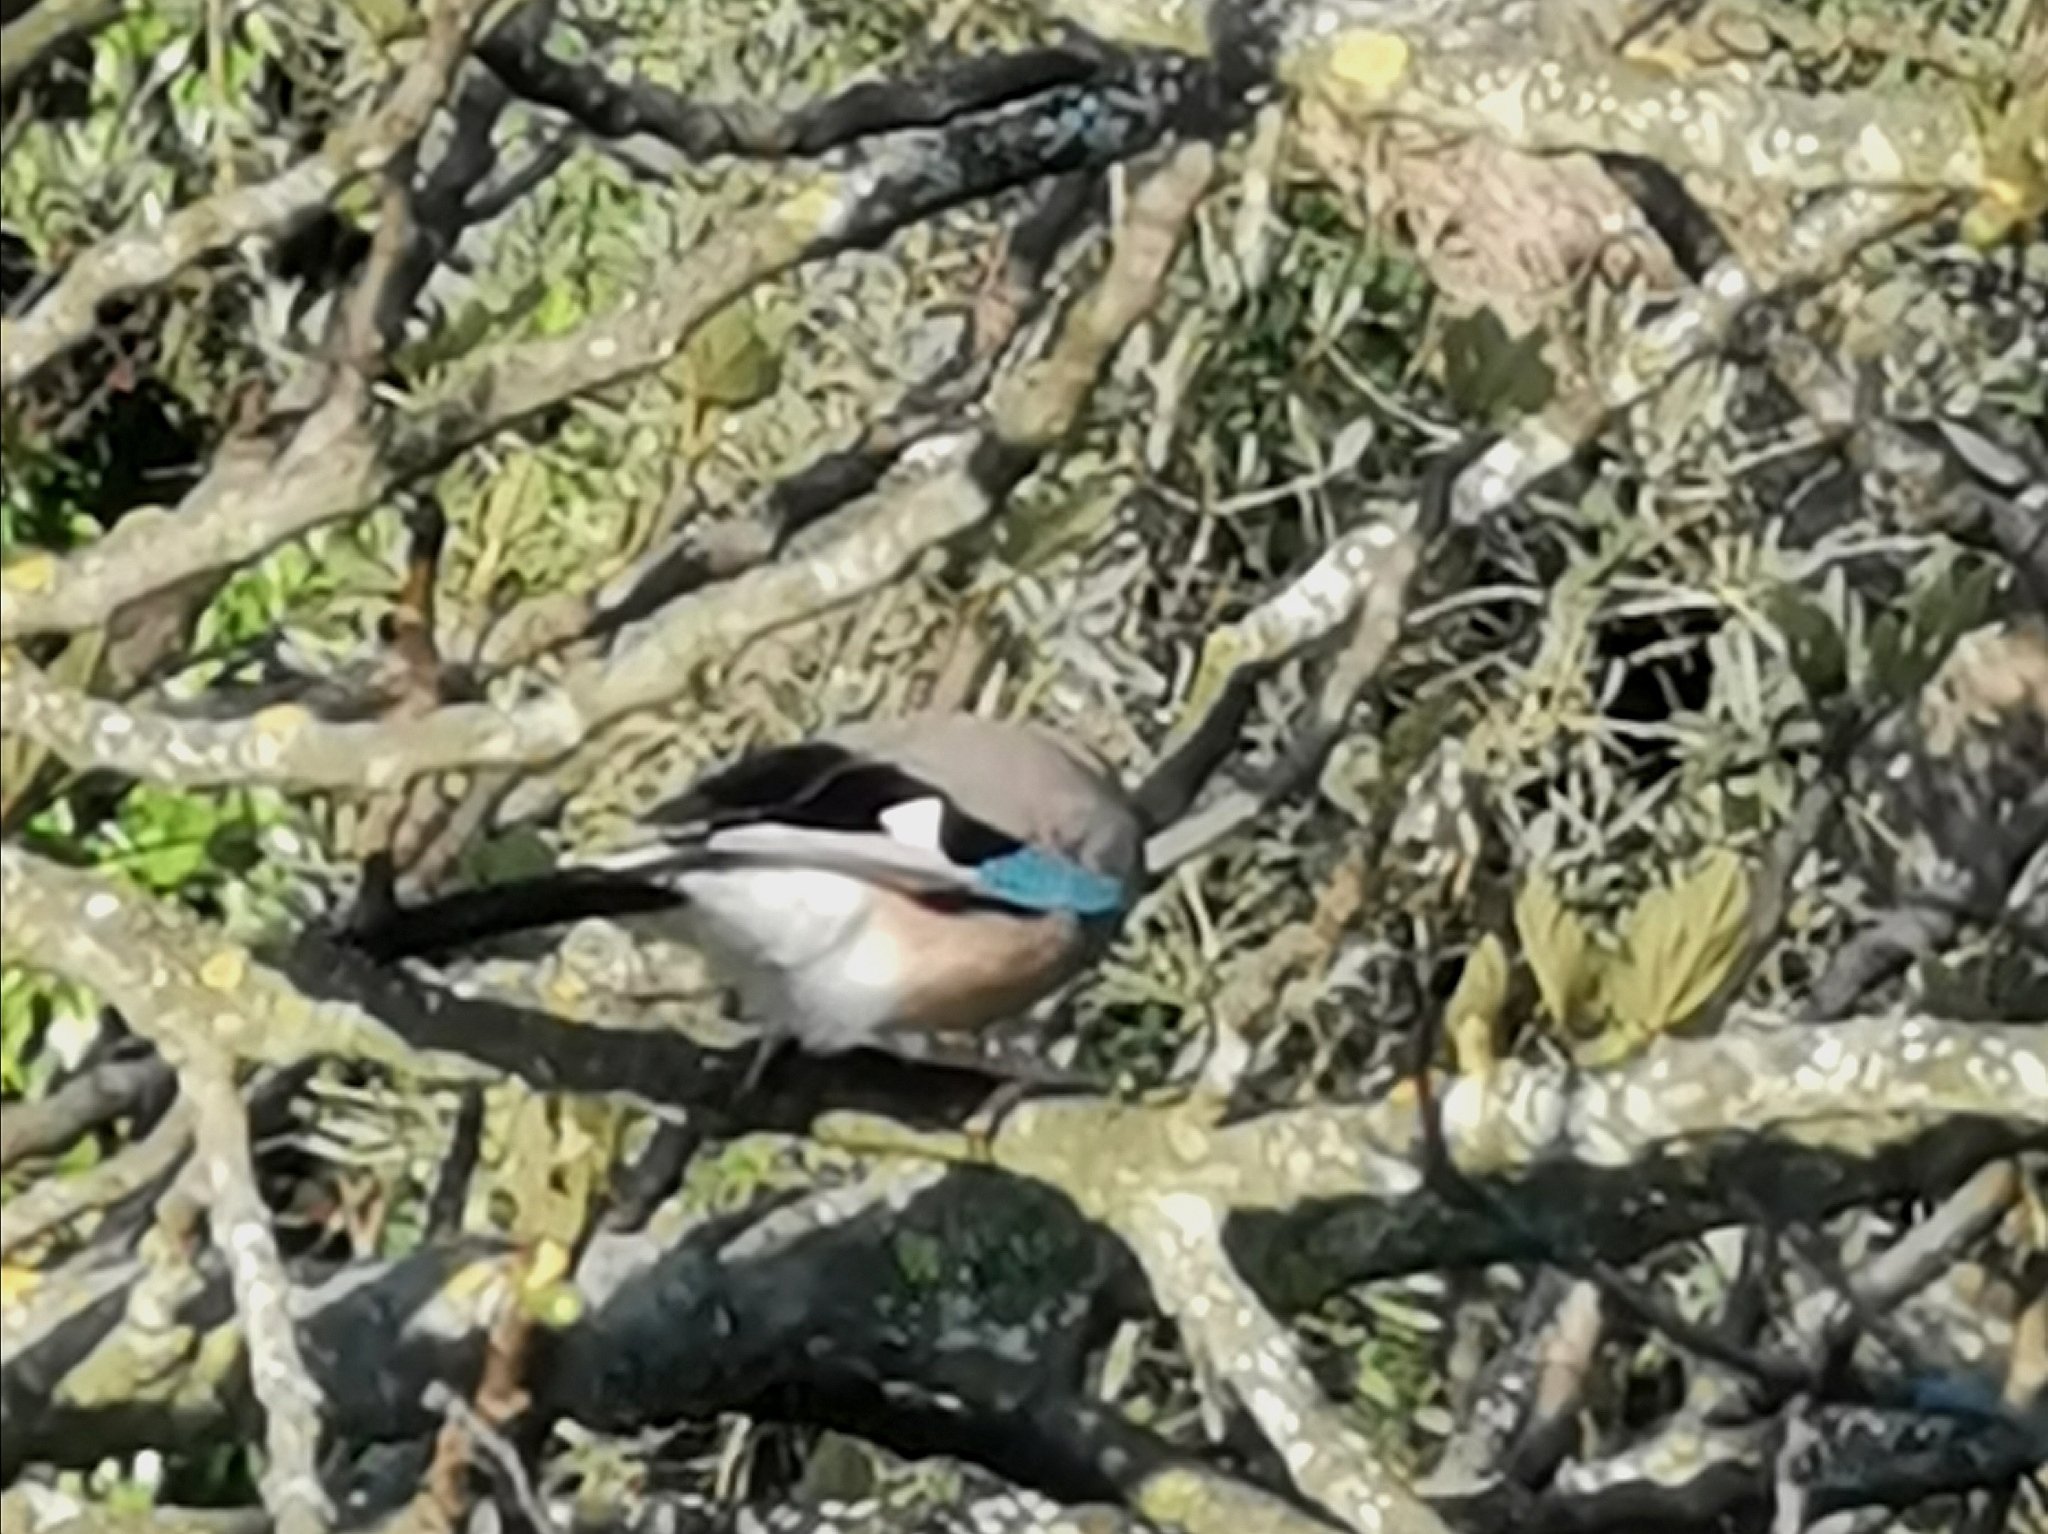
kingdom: Animalia
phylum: Chordata
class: Aves
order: Passeriformes
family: Corvidae
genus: Garrulus
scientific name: Garrulus glandarius
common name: Eurasian jay
